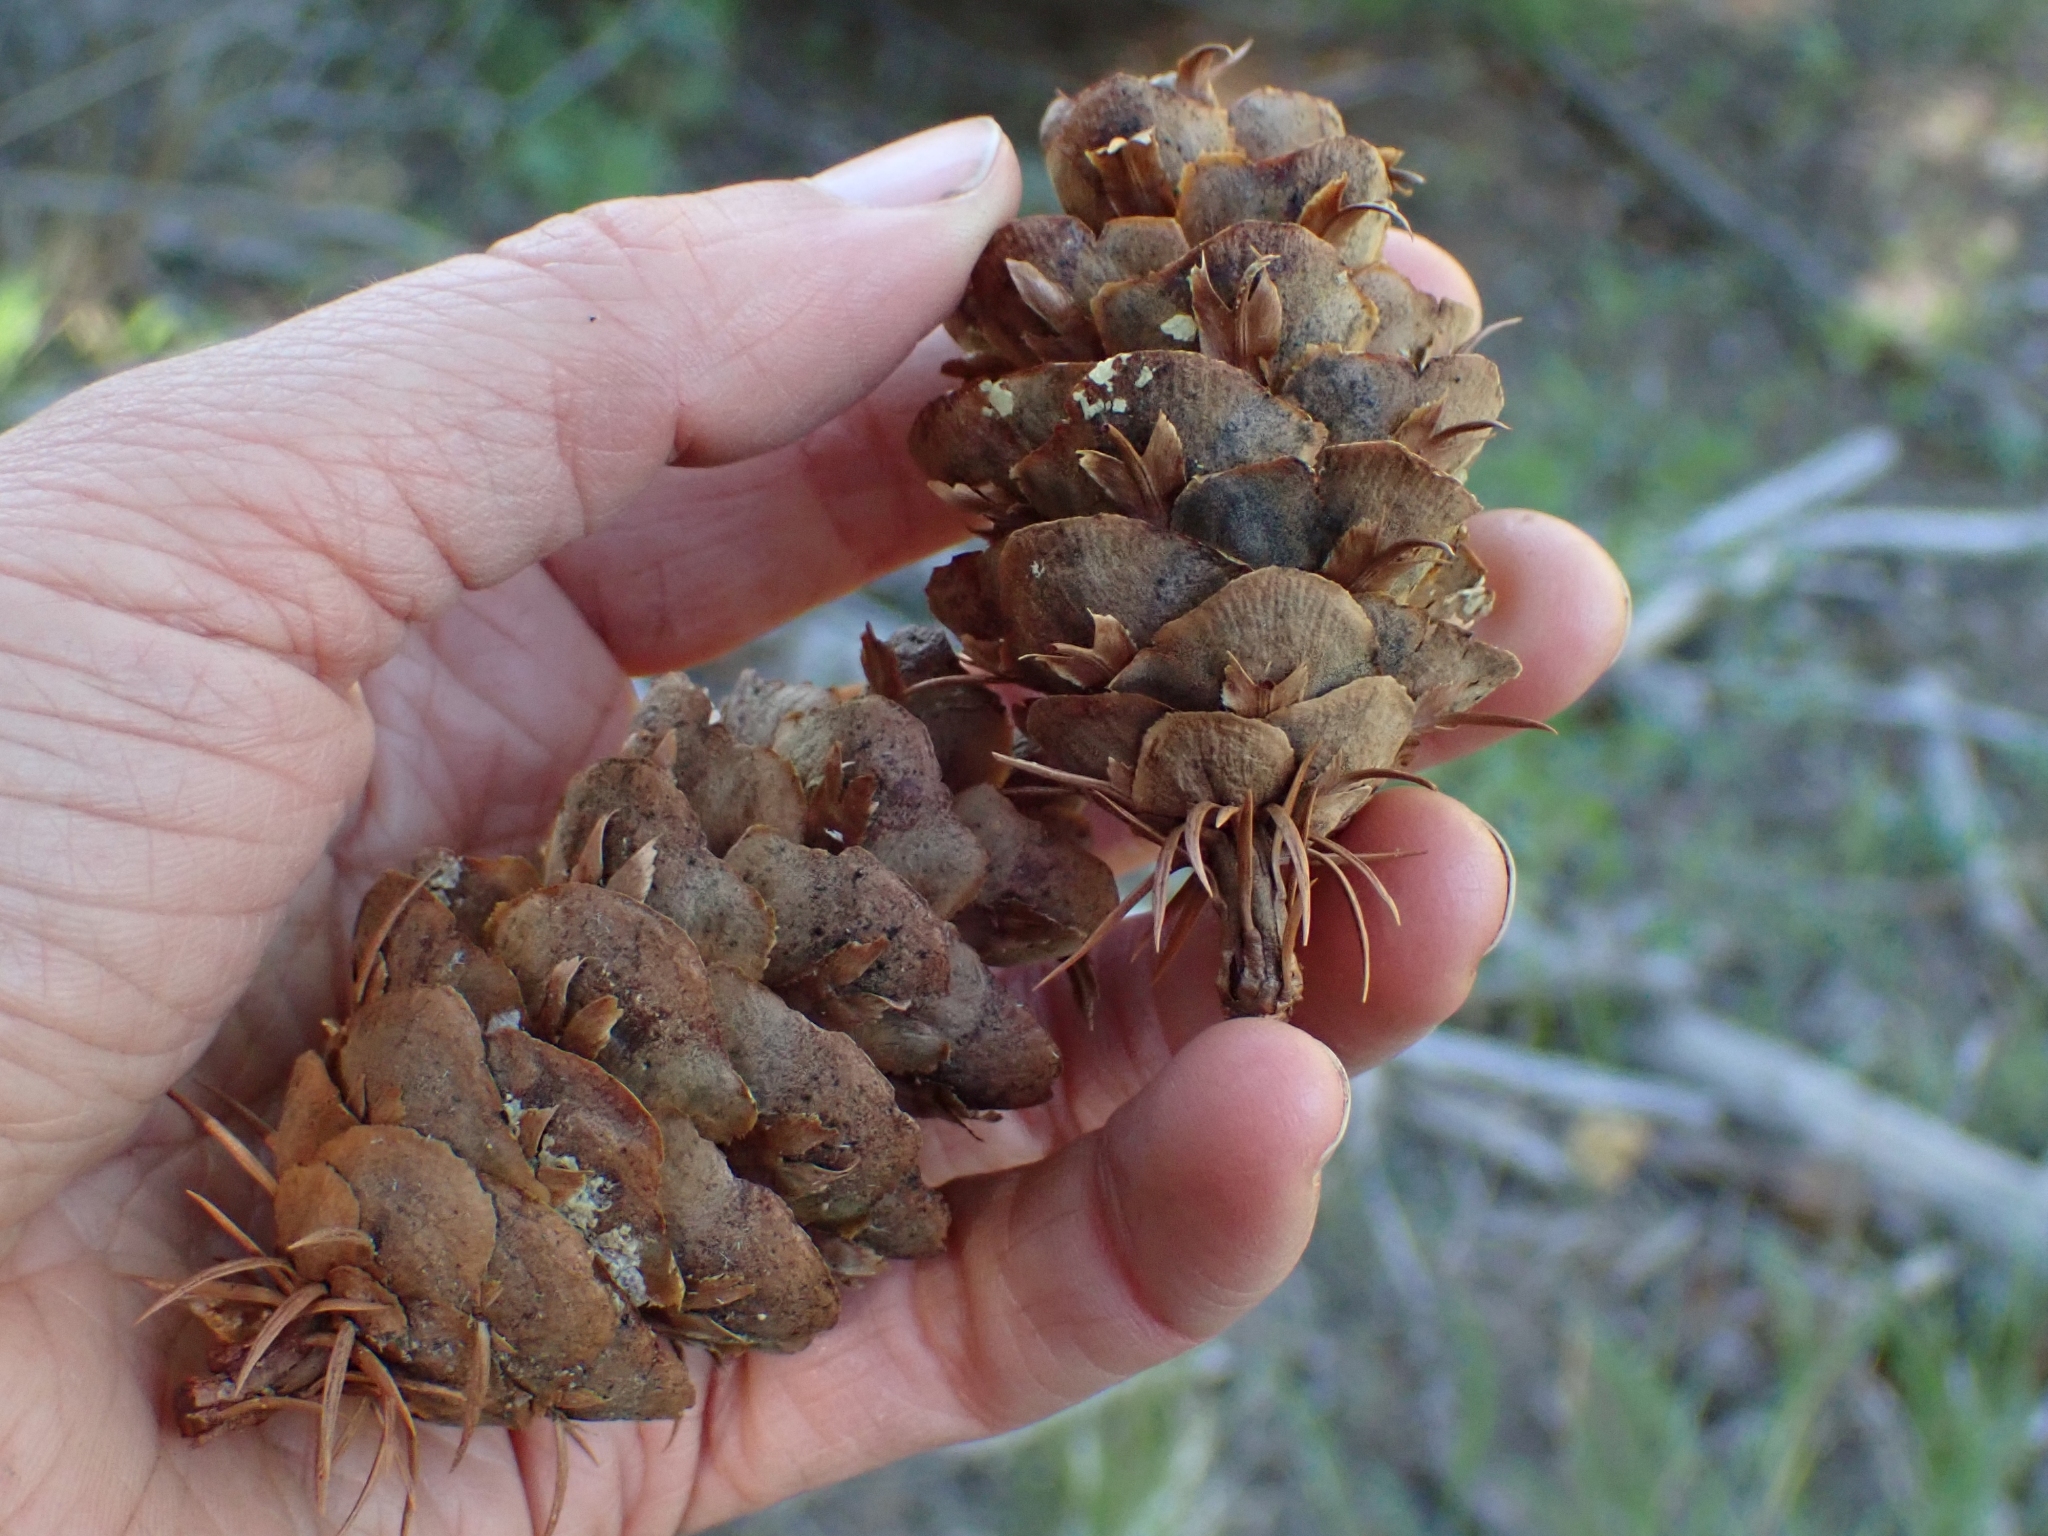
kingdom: Plantae
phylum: Tracheophyta
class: Pinopsida
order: Pinales
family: Pinaceae
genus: Pseudotsuga
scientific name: Pseudotsuga menziesii
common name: Douglas fir
